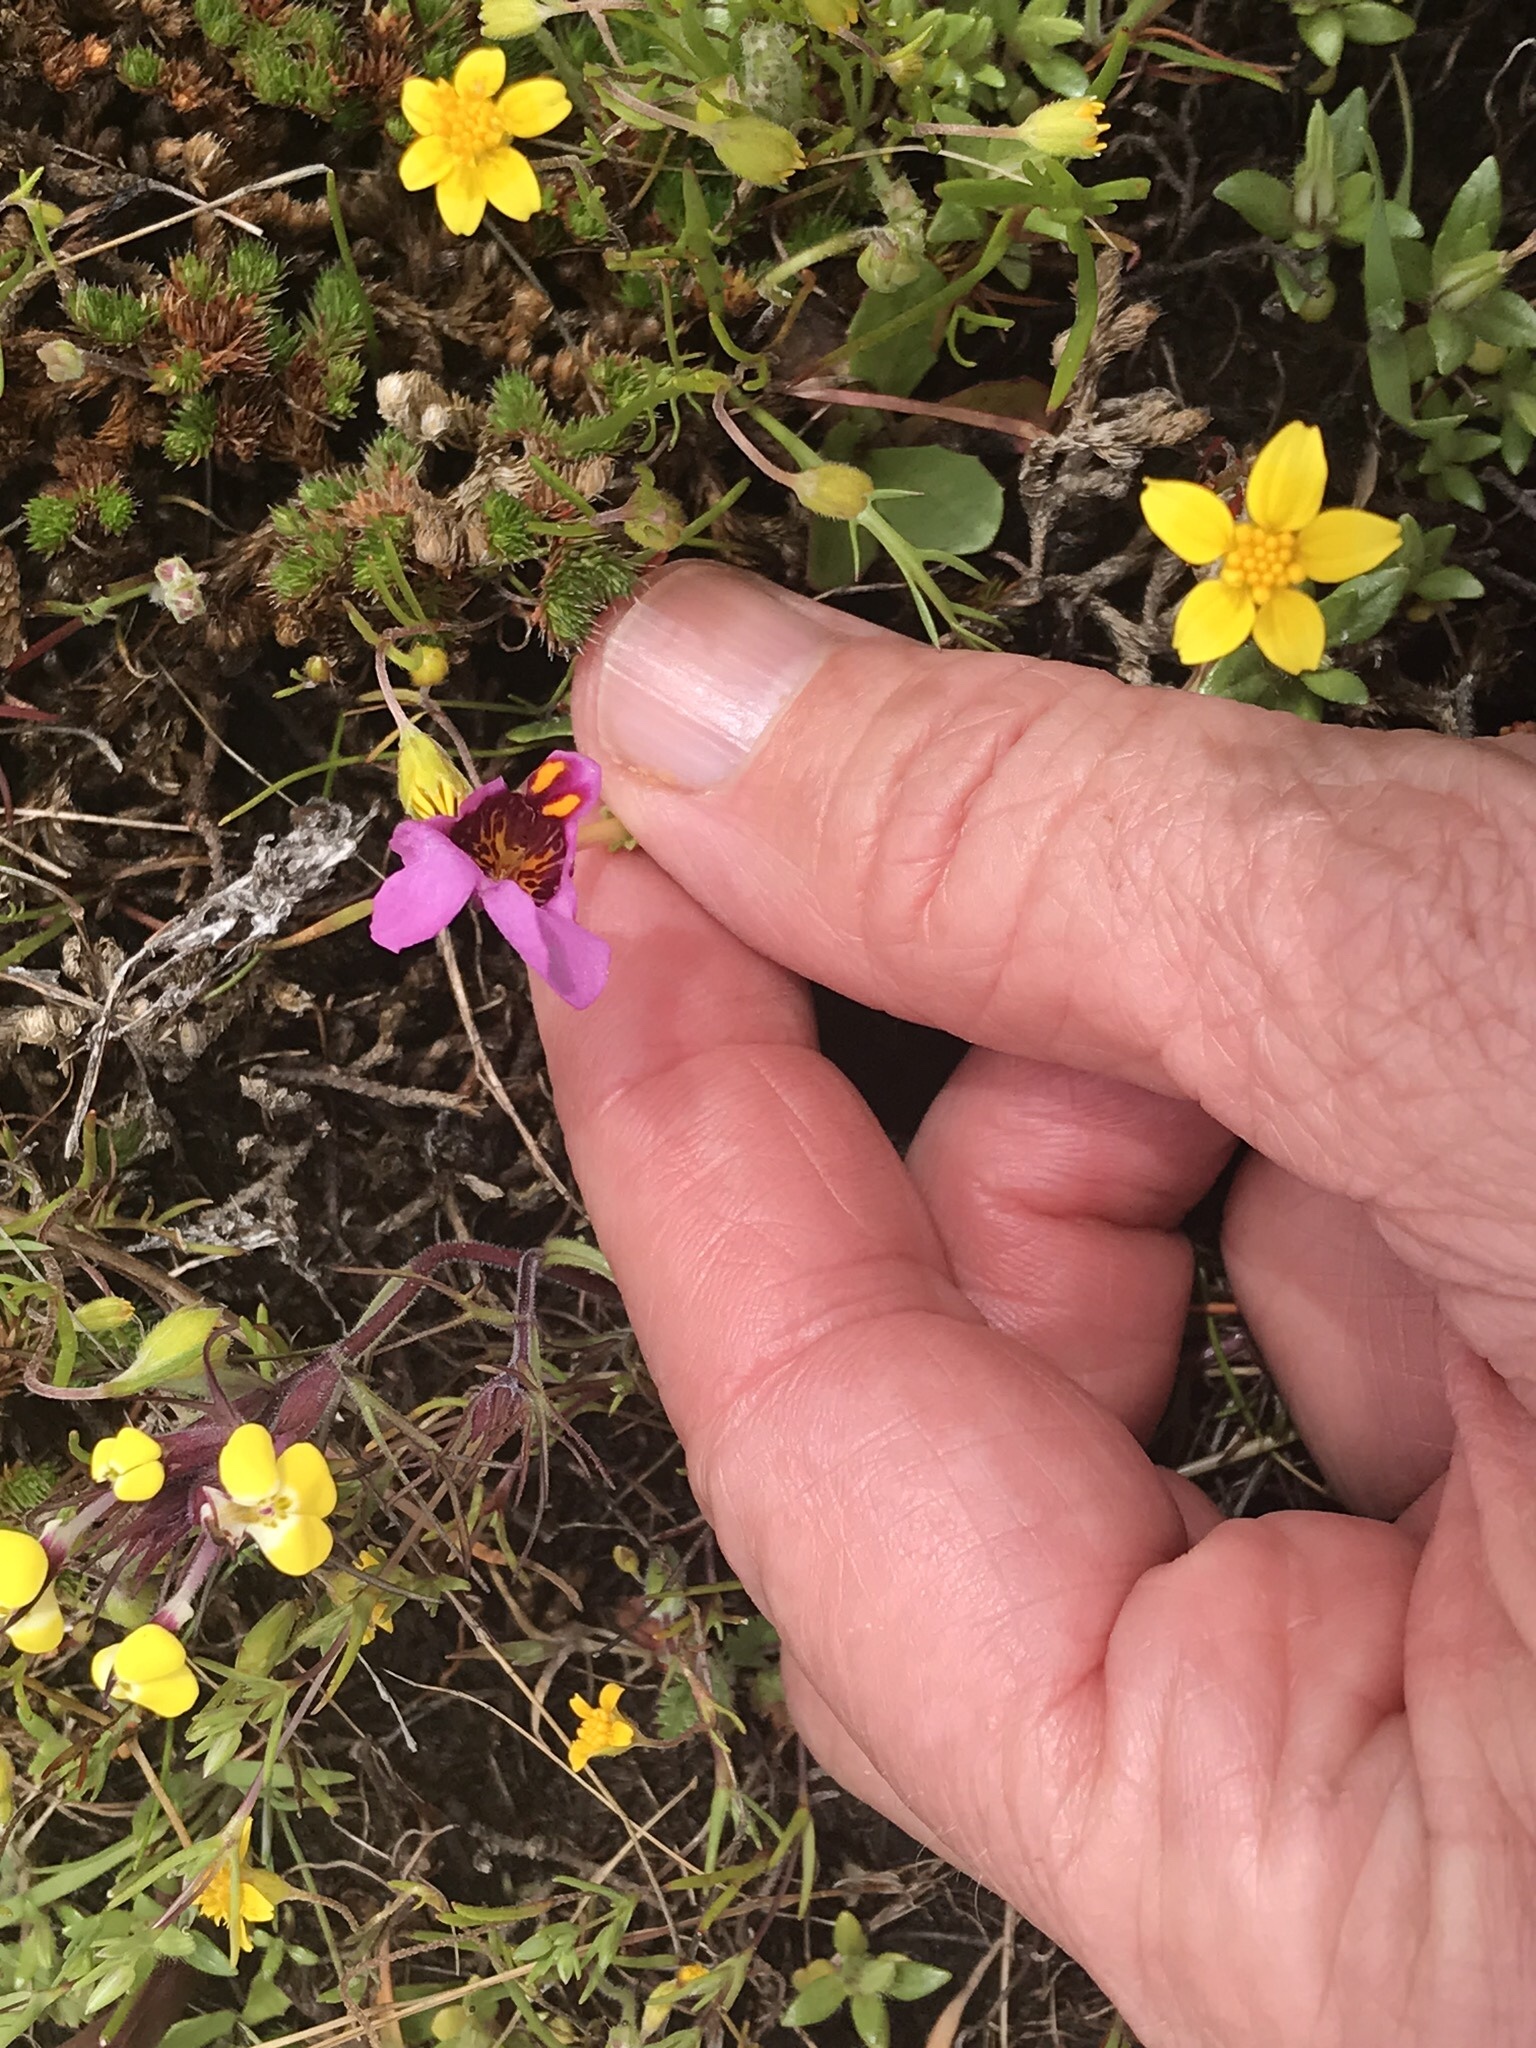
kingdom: Plantae
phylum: Tracheophyta
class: Magnoliopsida
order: Lamiales
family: Phrymaceae
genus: Diplacus
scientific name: Diplacus douglasii
